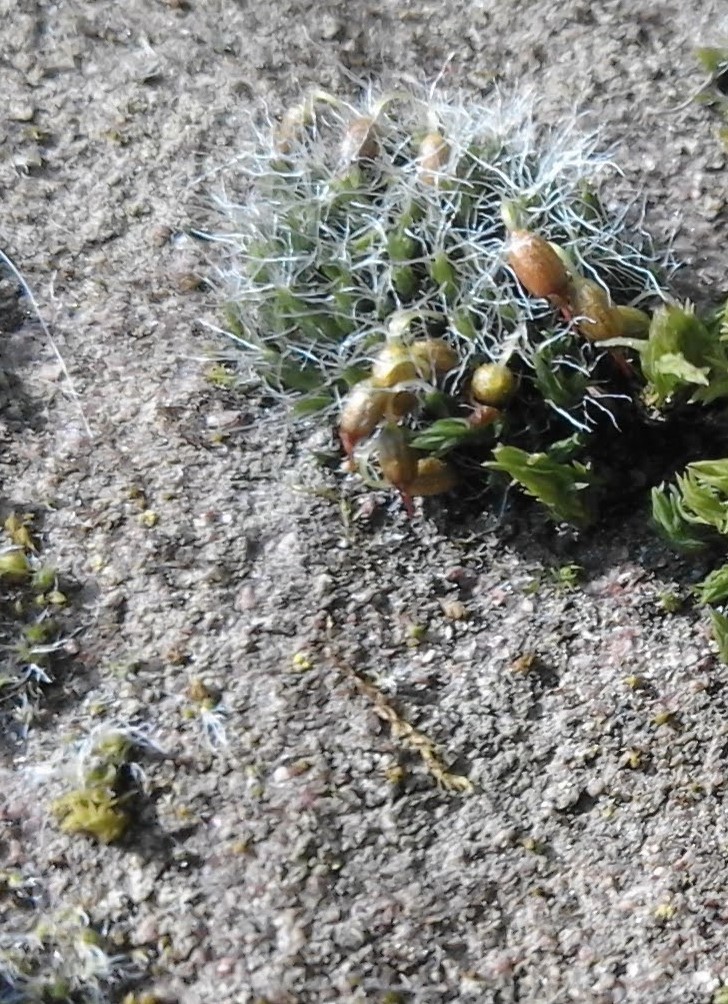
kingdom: Plantae
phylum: Bryophyta
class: Bryopsida
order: Grimmiales
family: Grimmiaceae
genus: Grimmia
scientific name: Grimmia pulvinata
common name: Grey-cushioned grimmia
